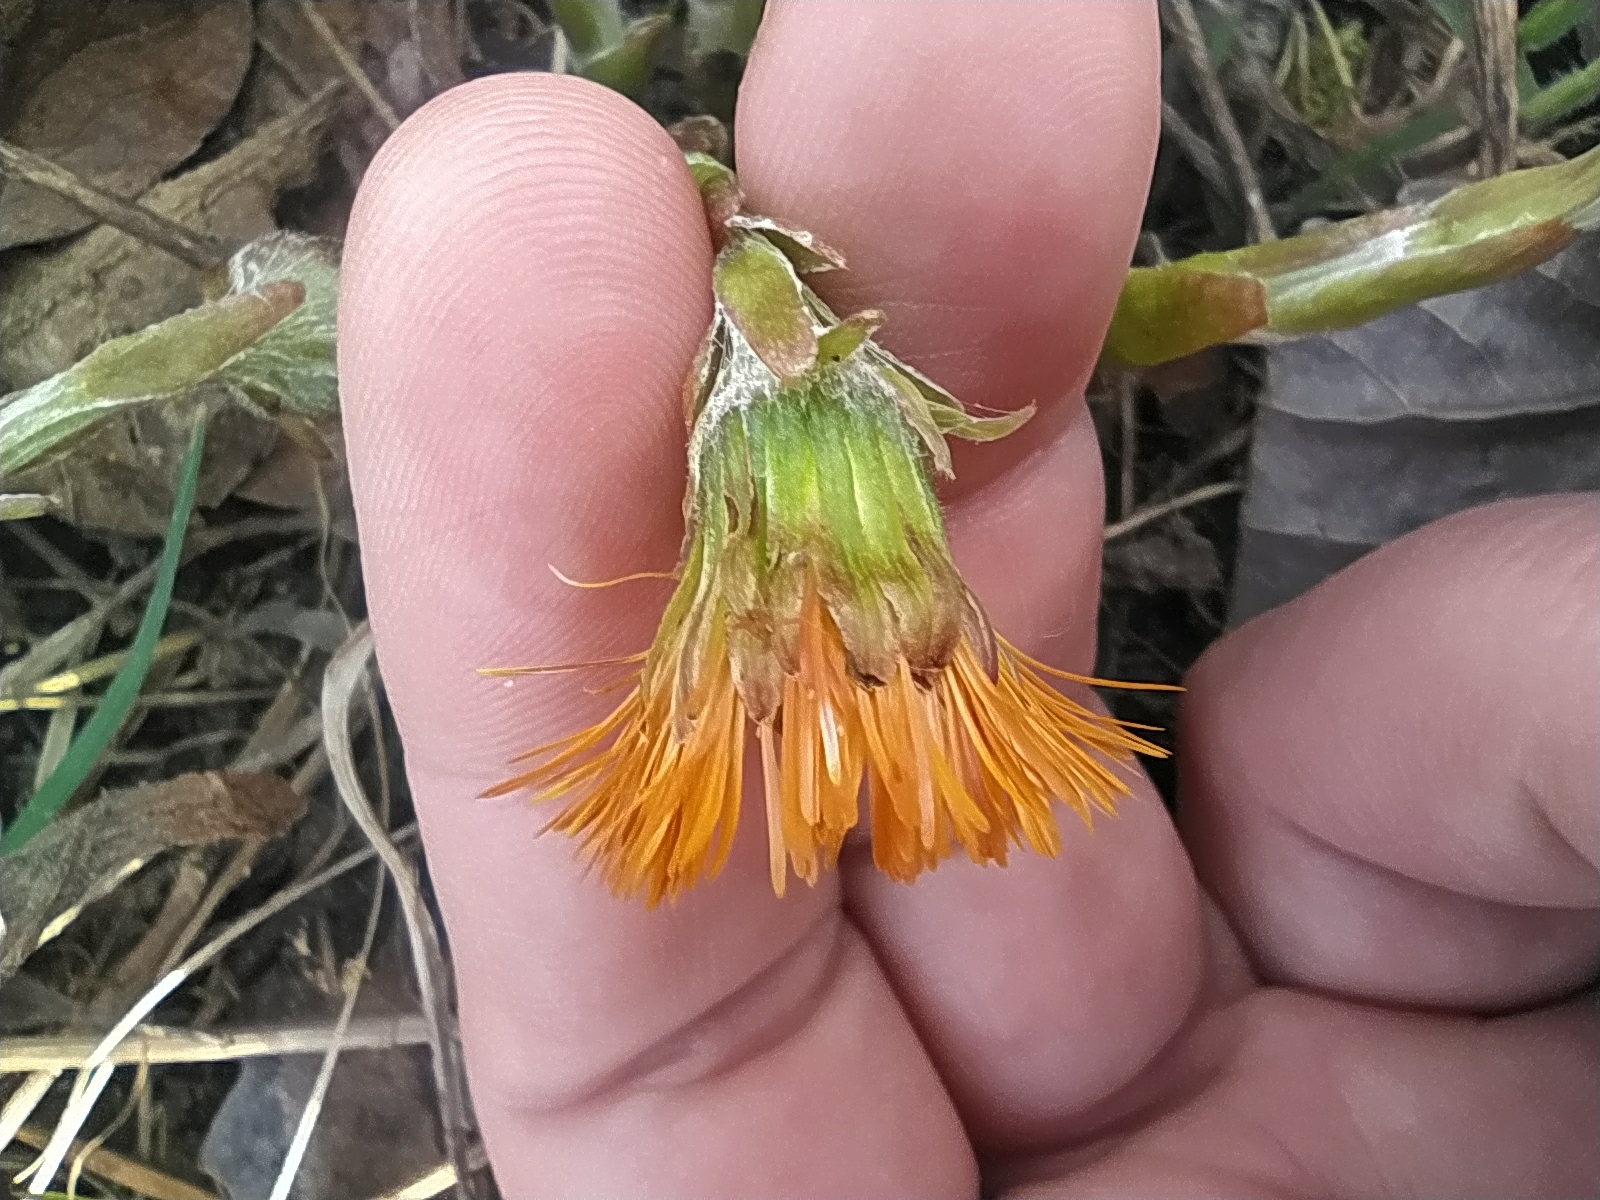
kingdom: Plantae
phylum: Tracheophyta
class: Magnoliopsida
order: Asterales
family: Asteraceae
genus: Tussilago
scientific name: Tussilago farfara
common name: Coltsfoot
